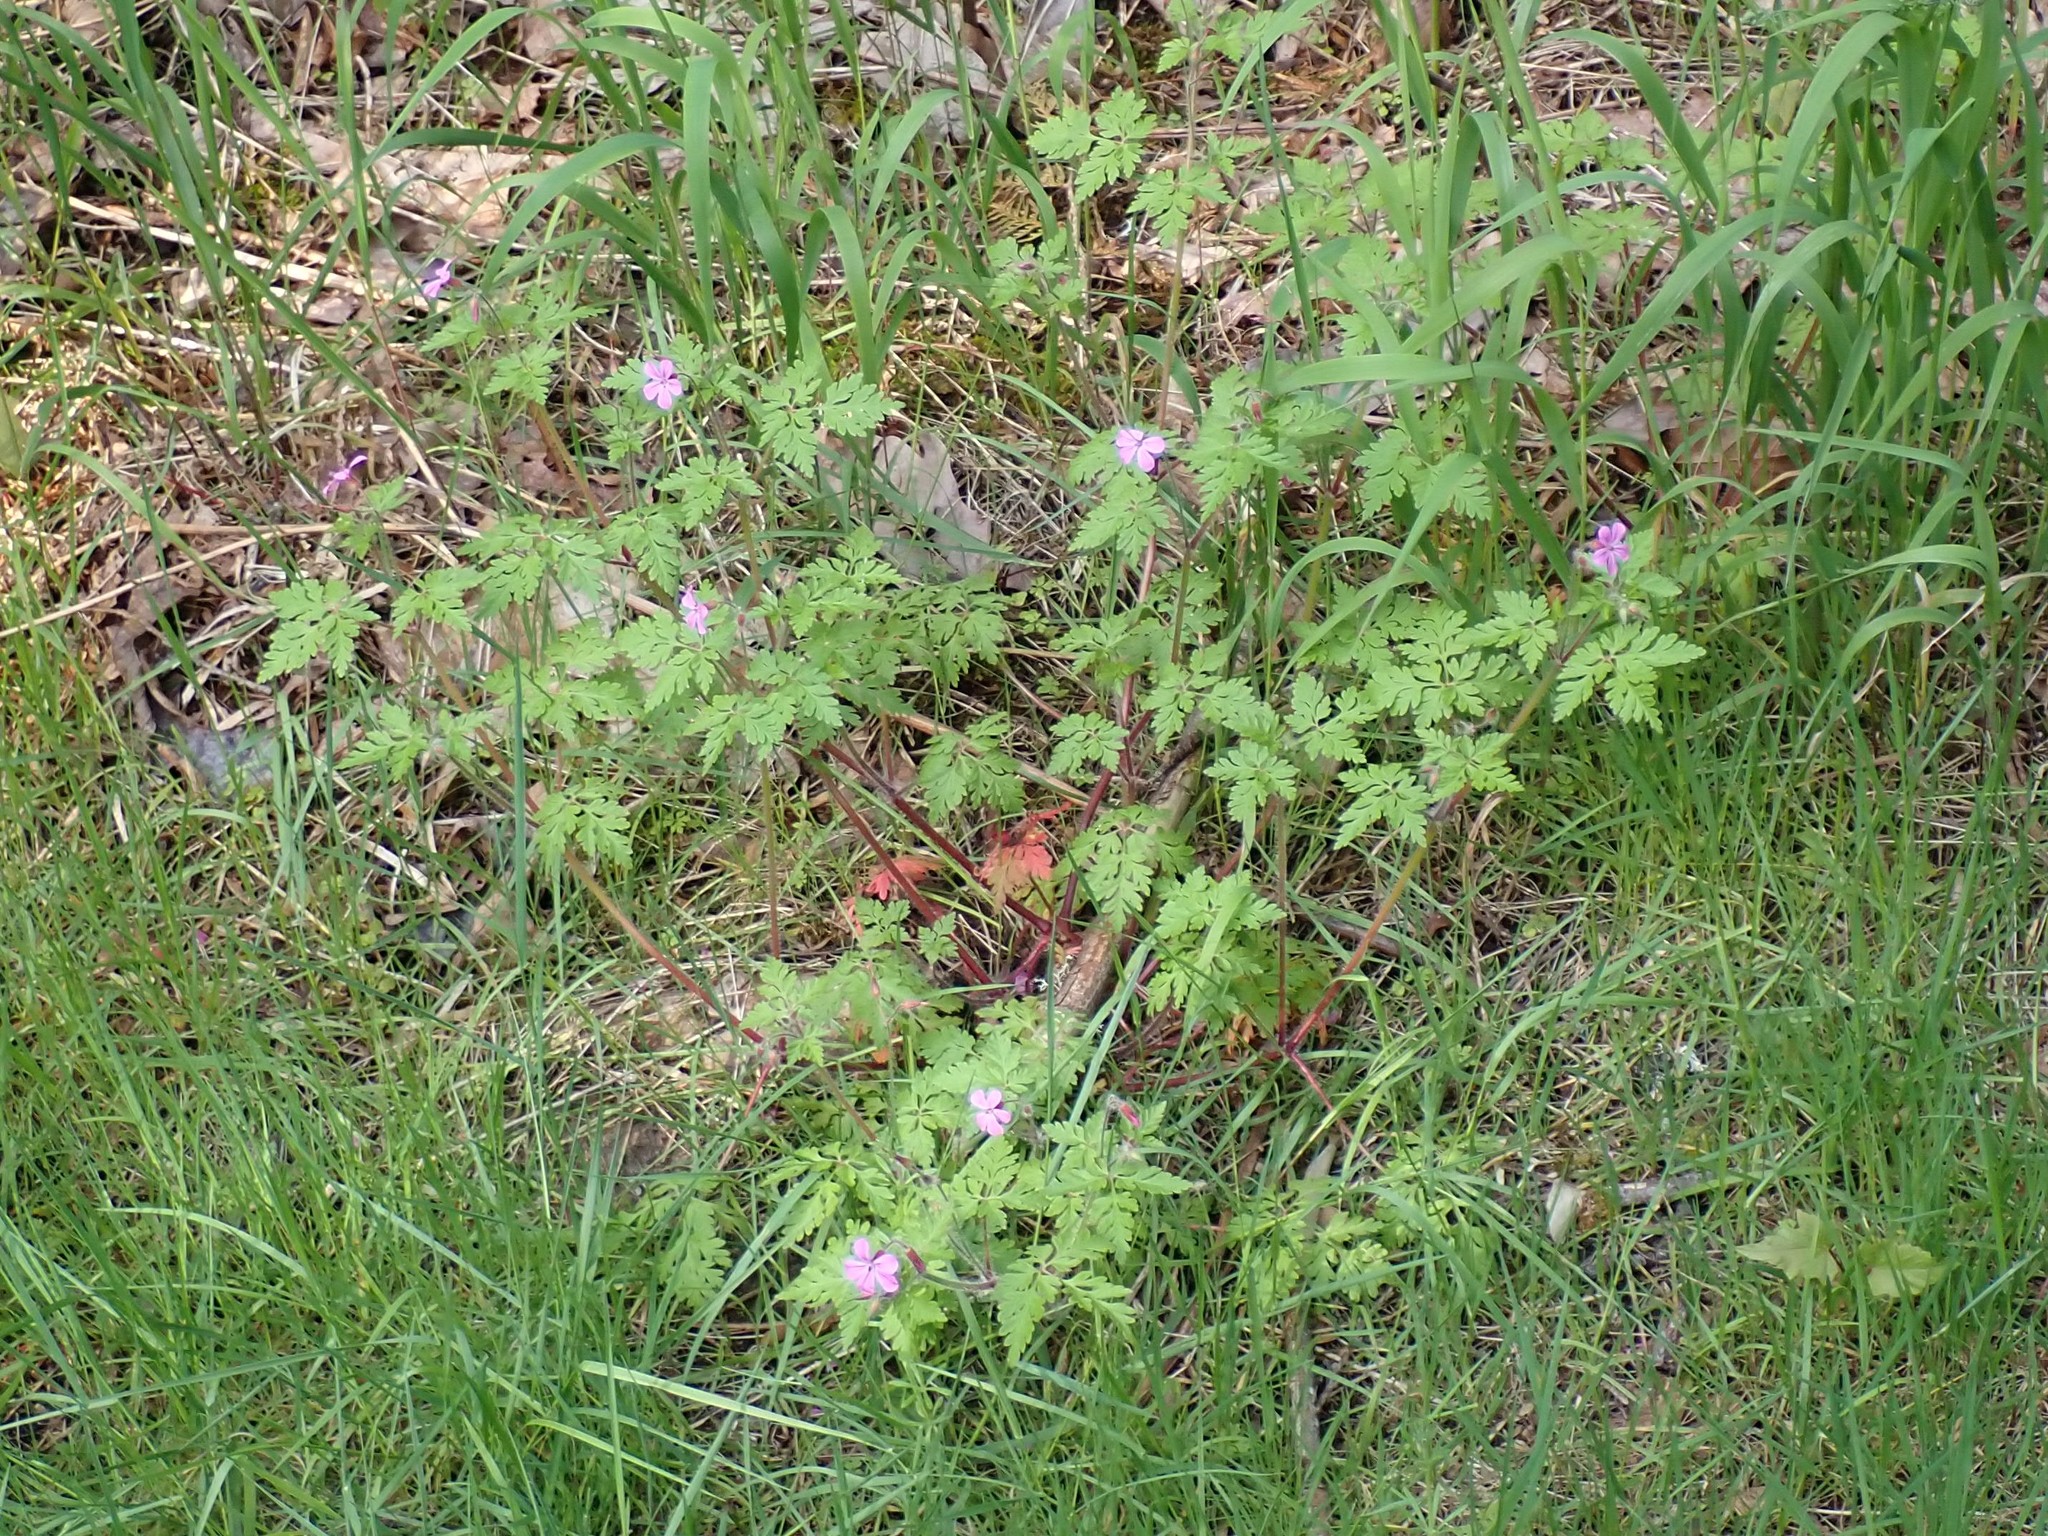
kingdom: Plantae
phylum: Tracheophyta
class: Magnoliopsida
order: Geraniales
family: Geraniaceae
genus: Geranium
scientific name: Geranium robertianum
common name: Herb-robert
